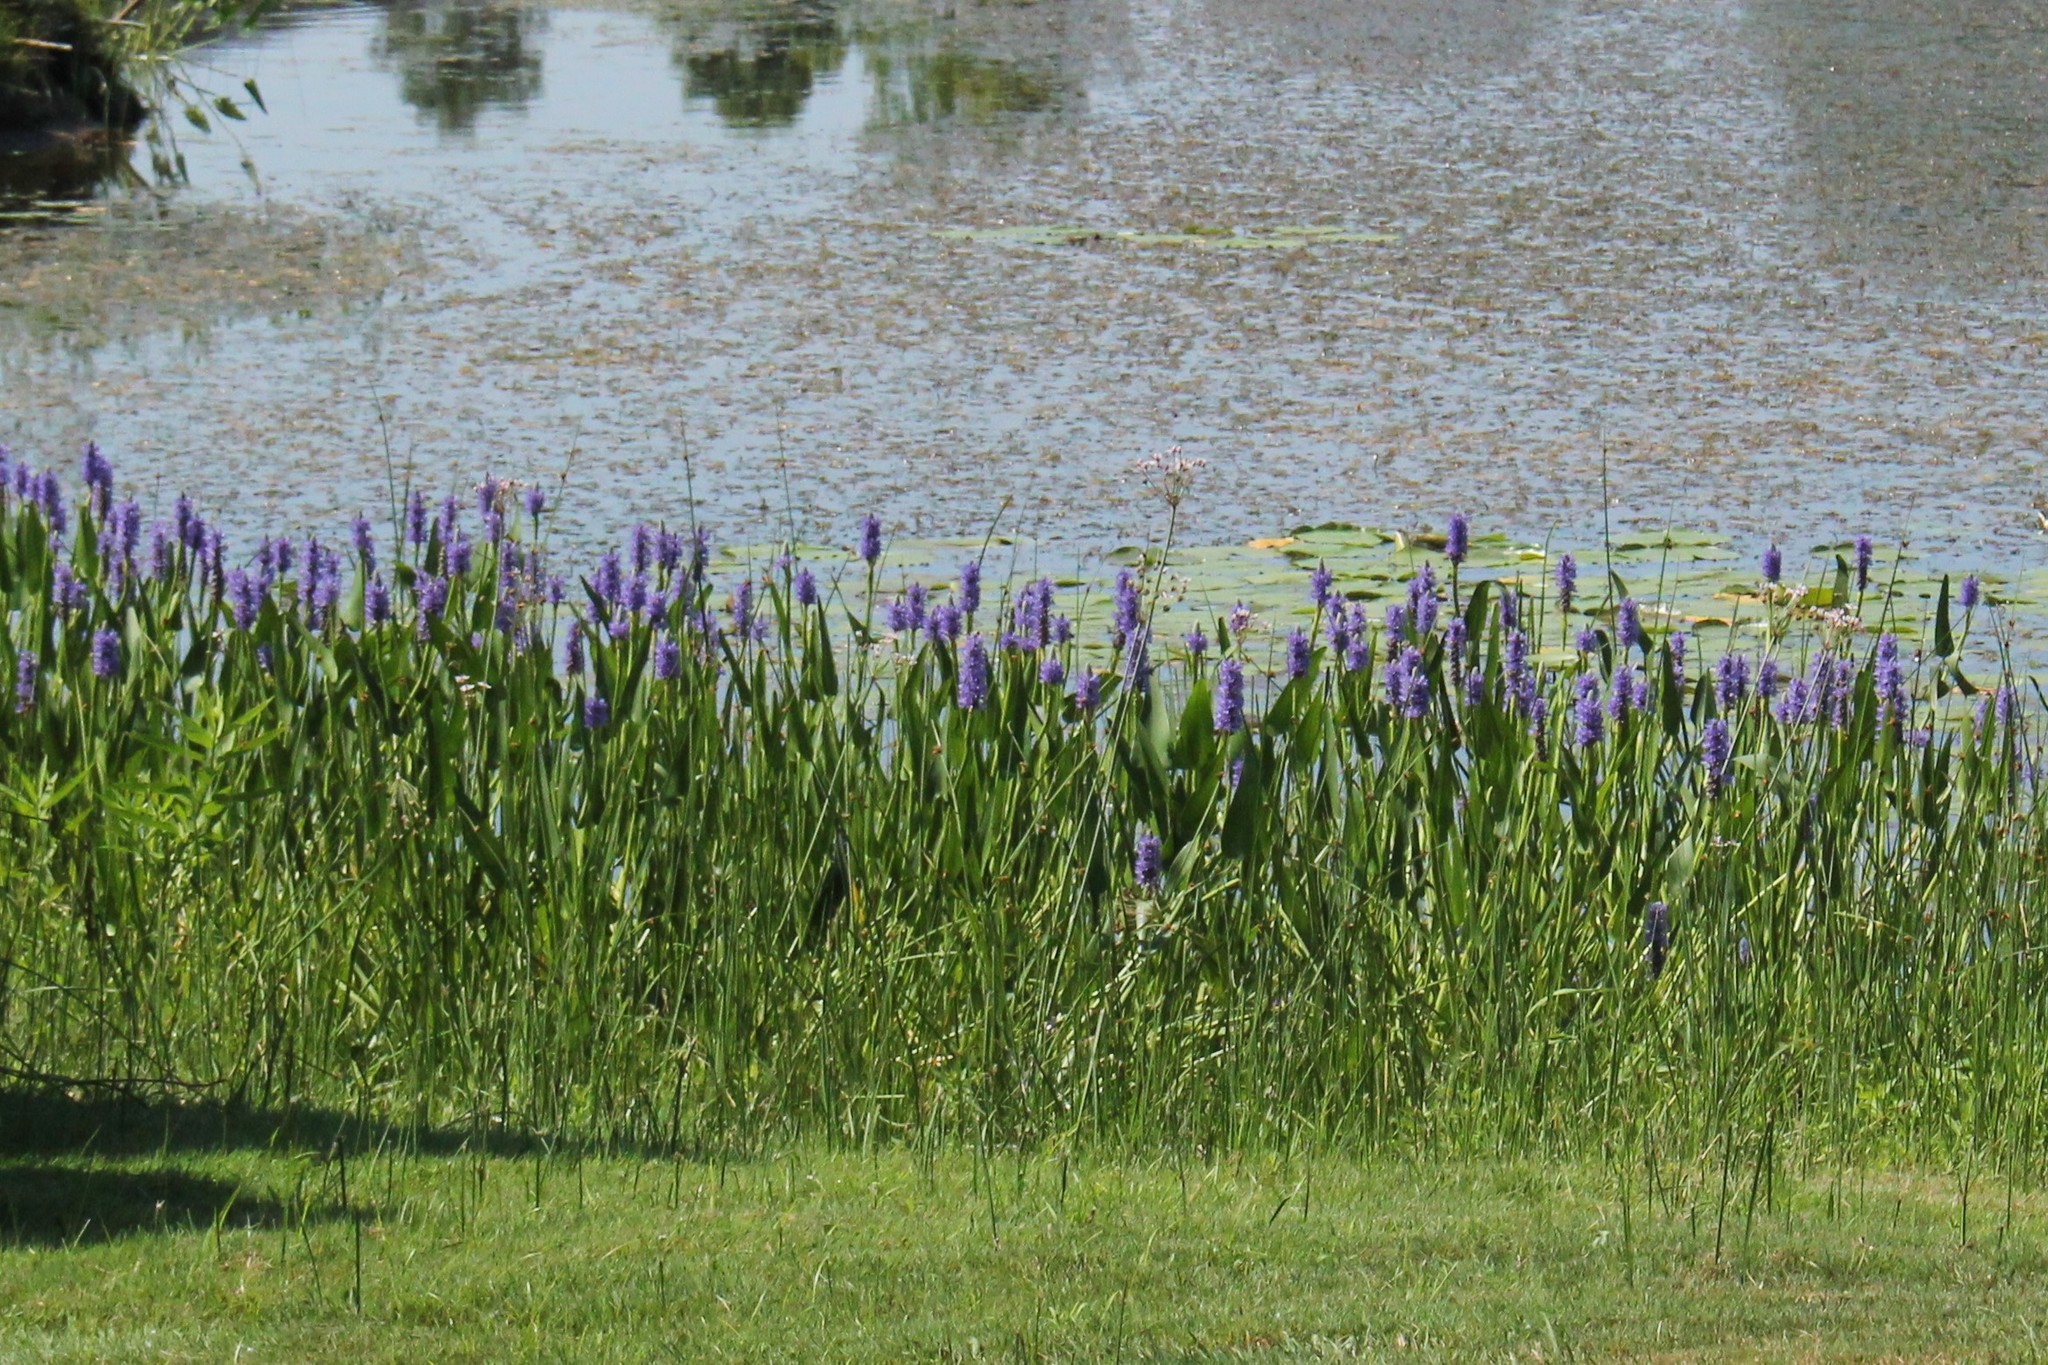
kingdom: Plantae
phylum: Tracheophyta
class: Liliopsida
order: Commelinales
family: Pontederiaceae
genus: Pontederia
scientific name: Pontederia cordata
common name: Pickerelweed
